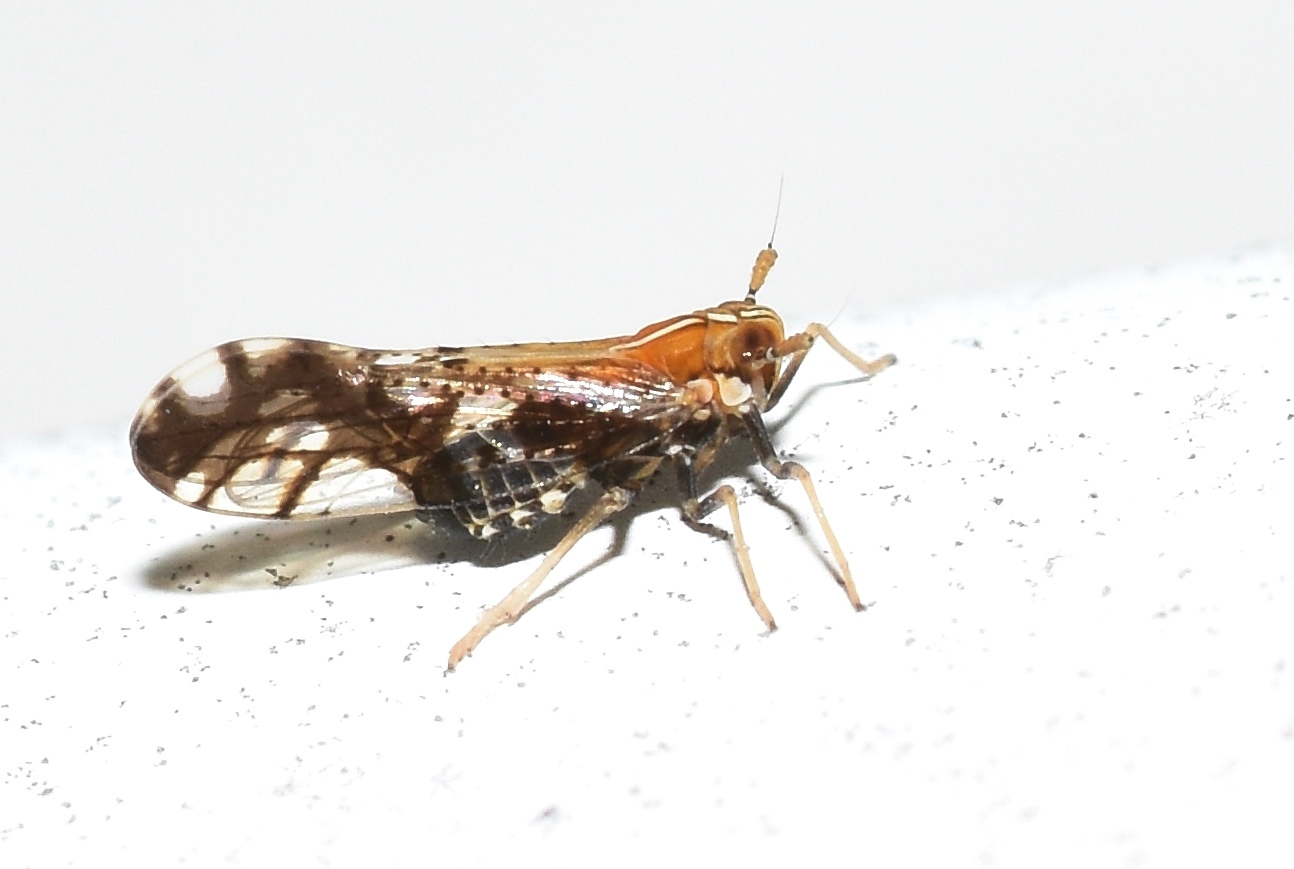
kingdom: Animalia
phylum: Arthropoda
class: Insecta
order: Hemiptera
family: Delphacidae
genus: Liburniella
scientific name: Liburniella ornata
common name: Ornate planthopper
